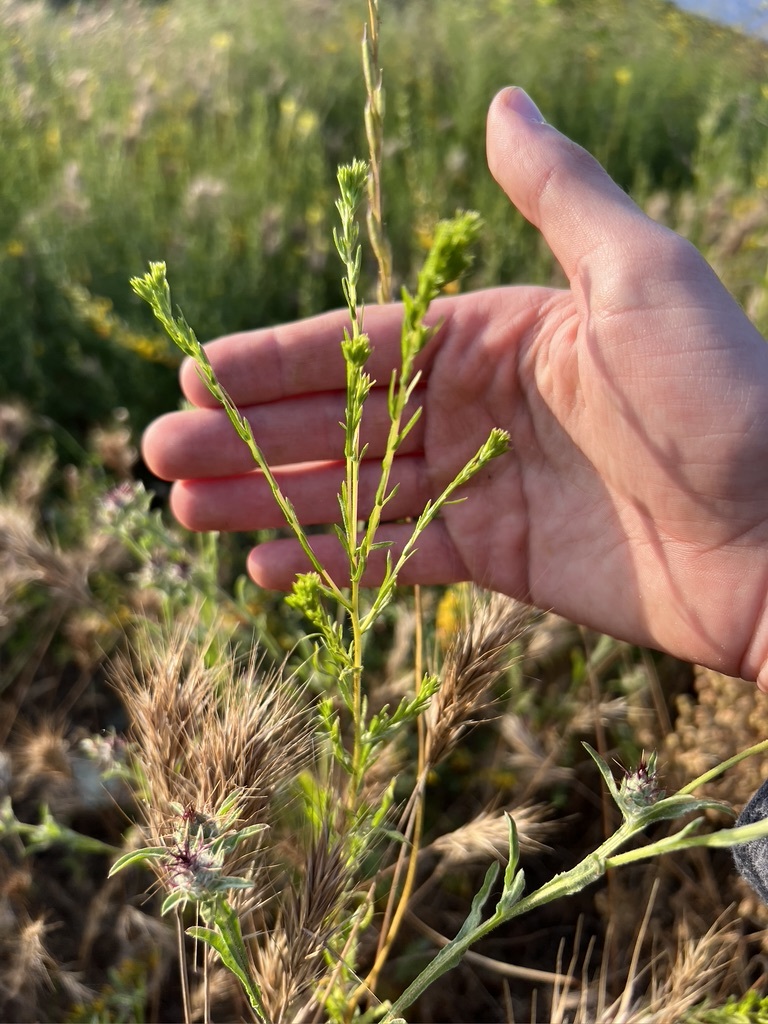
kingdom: Plantae
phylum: Tracheophyta
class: Magnoliopsida
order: Asterales
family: Asteraceae
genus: Deinandra
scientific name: Deinandra fasciculata
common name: Clustered tarweed
